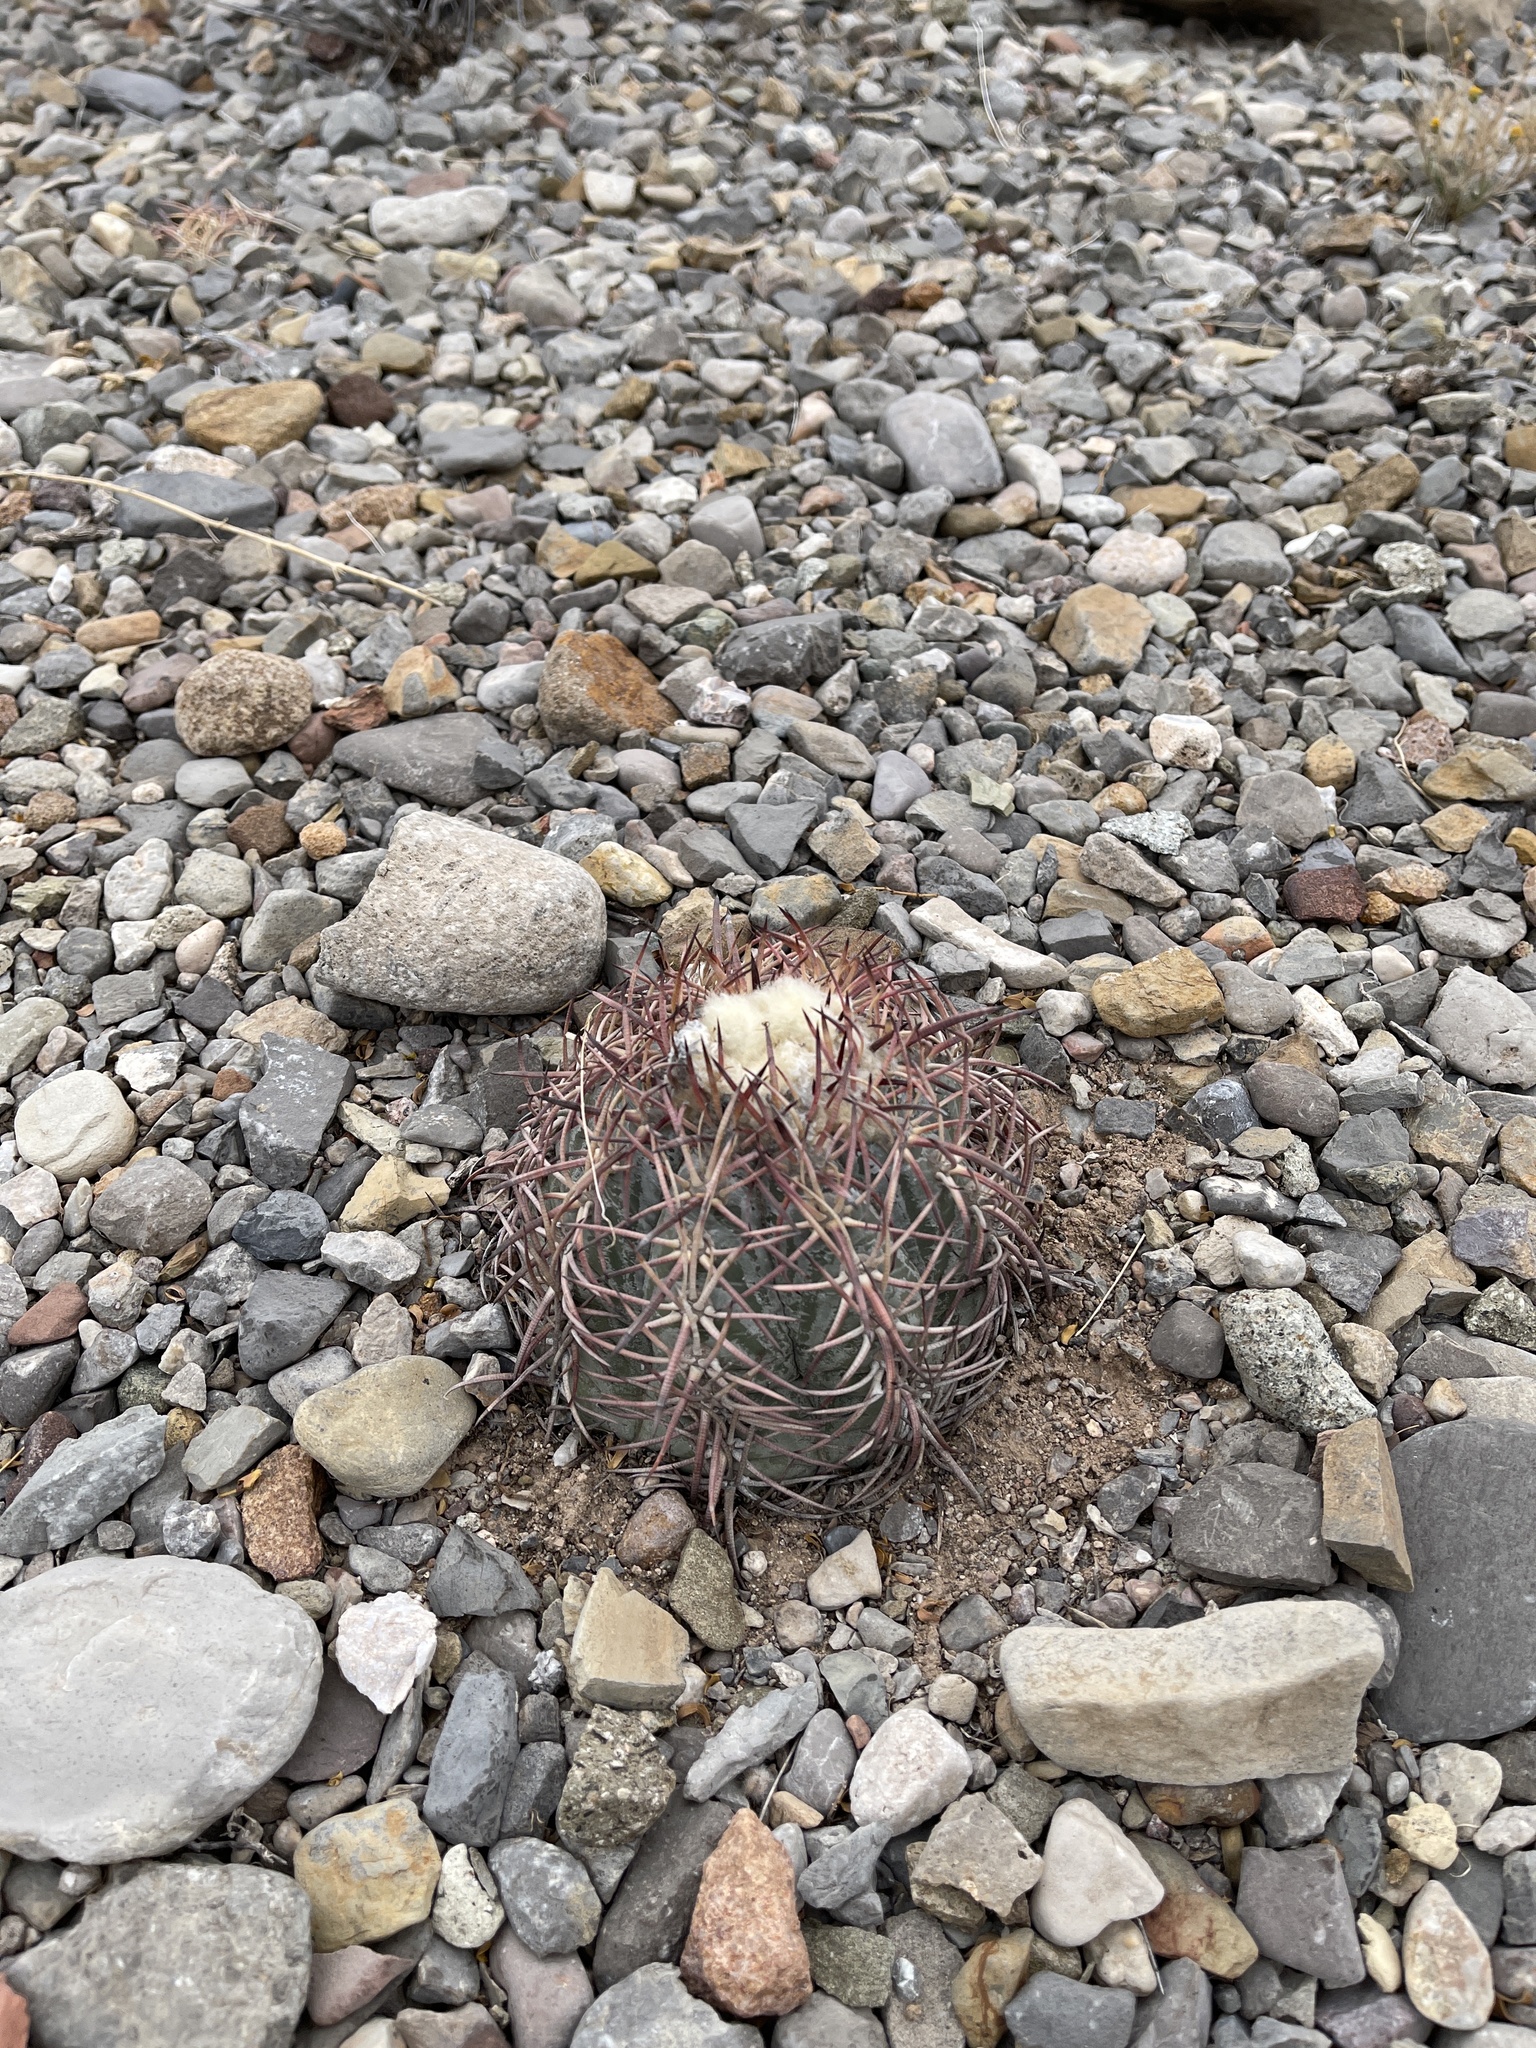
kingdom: Plantae
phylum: Tracheophyta
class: Magnoliopsida
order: Caryophyllales
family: Cactaceae
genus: Echinocactus
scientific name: Echinocactus horizonthalonius
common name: Devilshead
